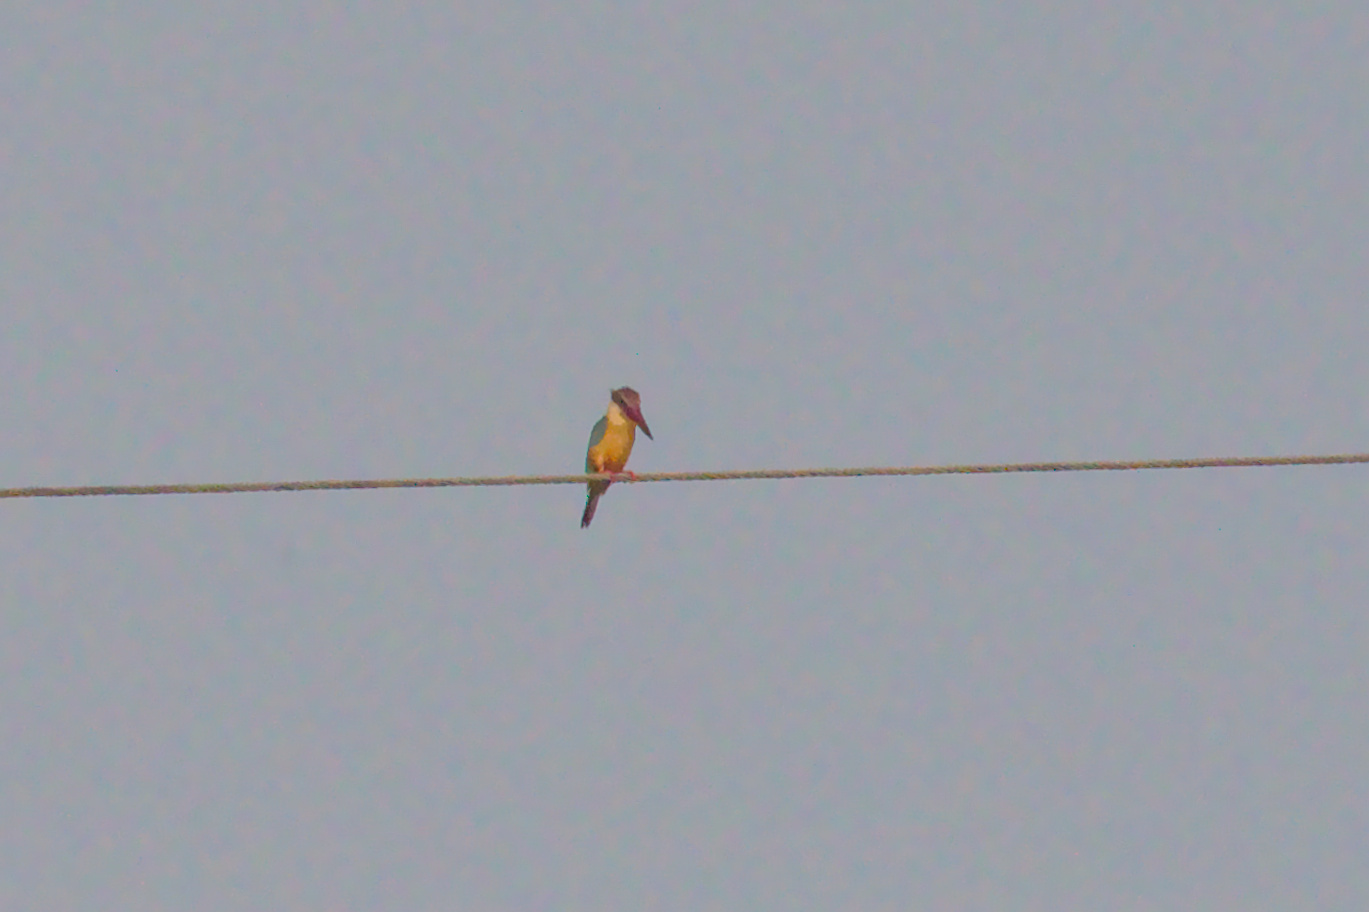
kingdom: Animalia
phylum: Chordata
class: Aves
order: Coraciiformes
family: Alcedinidae
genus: Pelargopsis
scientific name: Pelargopsis capensis
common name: Stork-billed kingfisher
